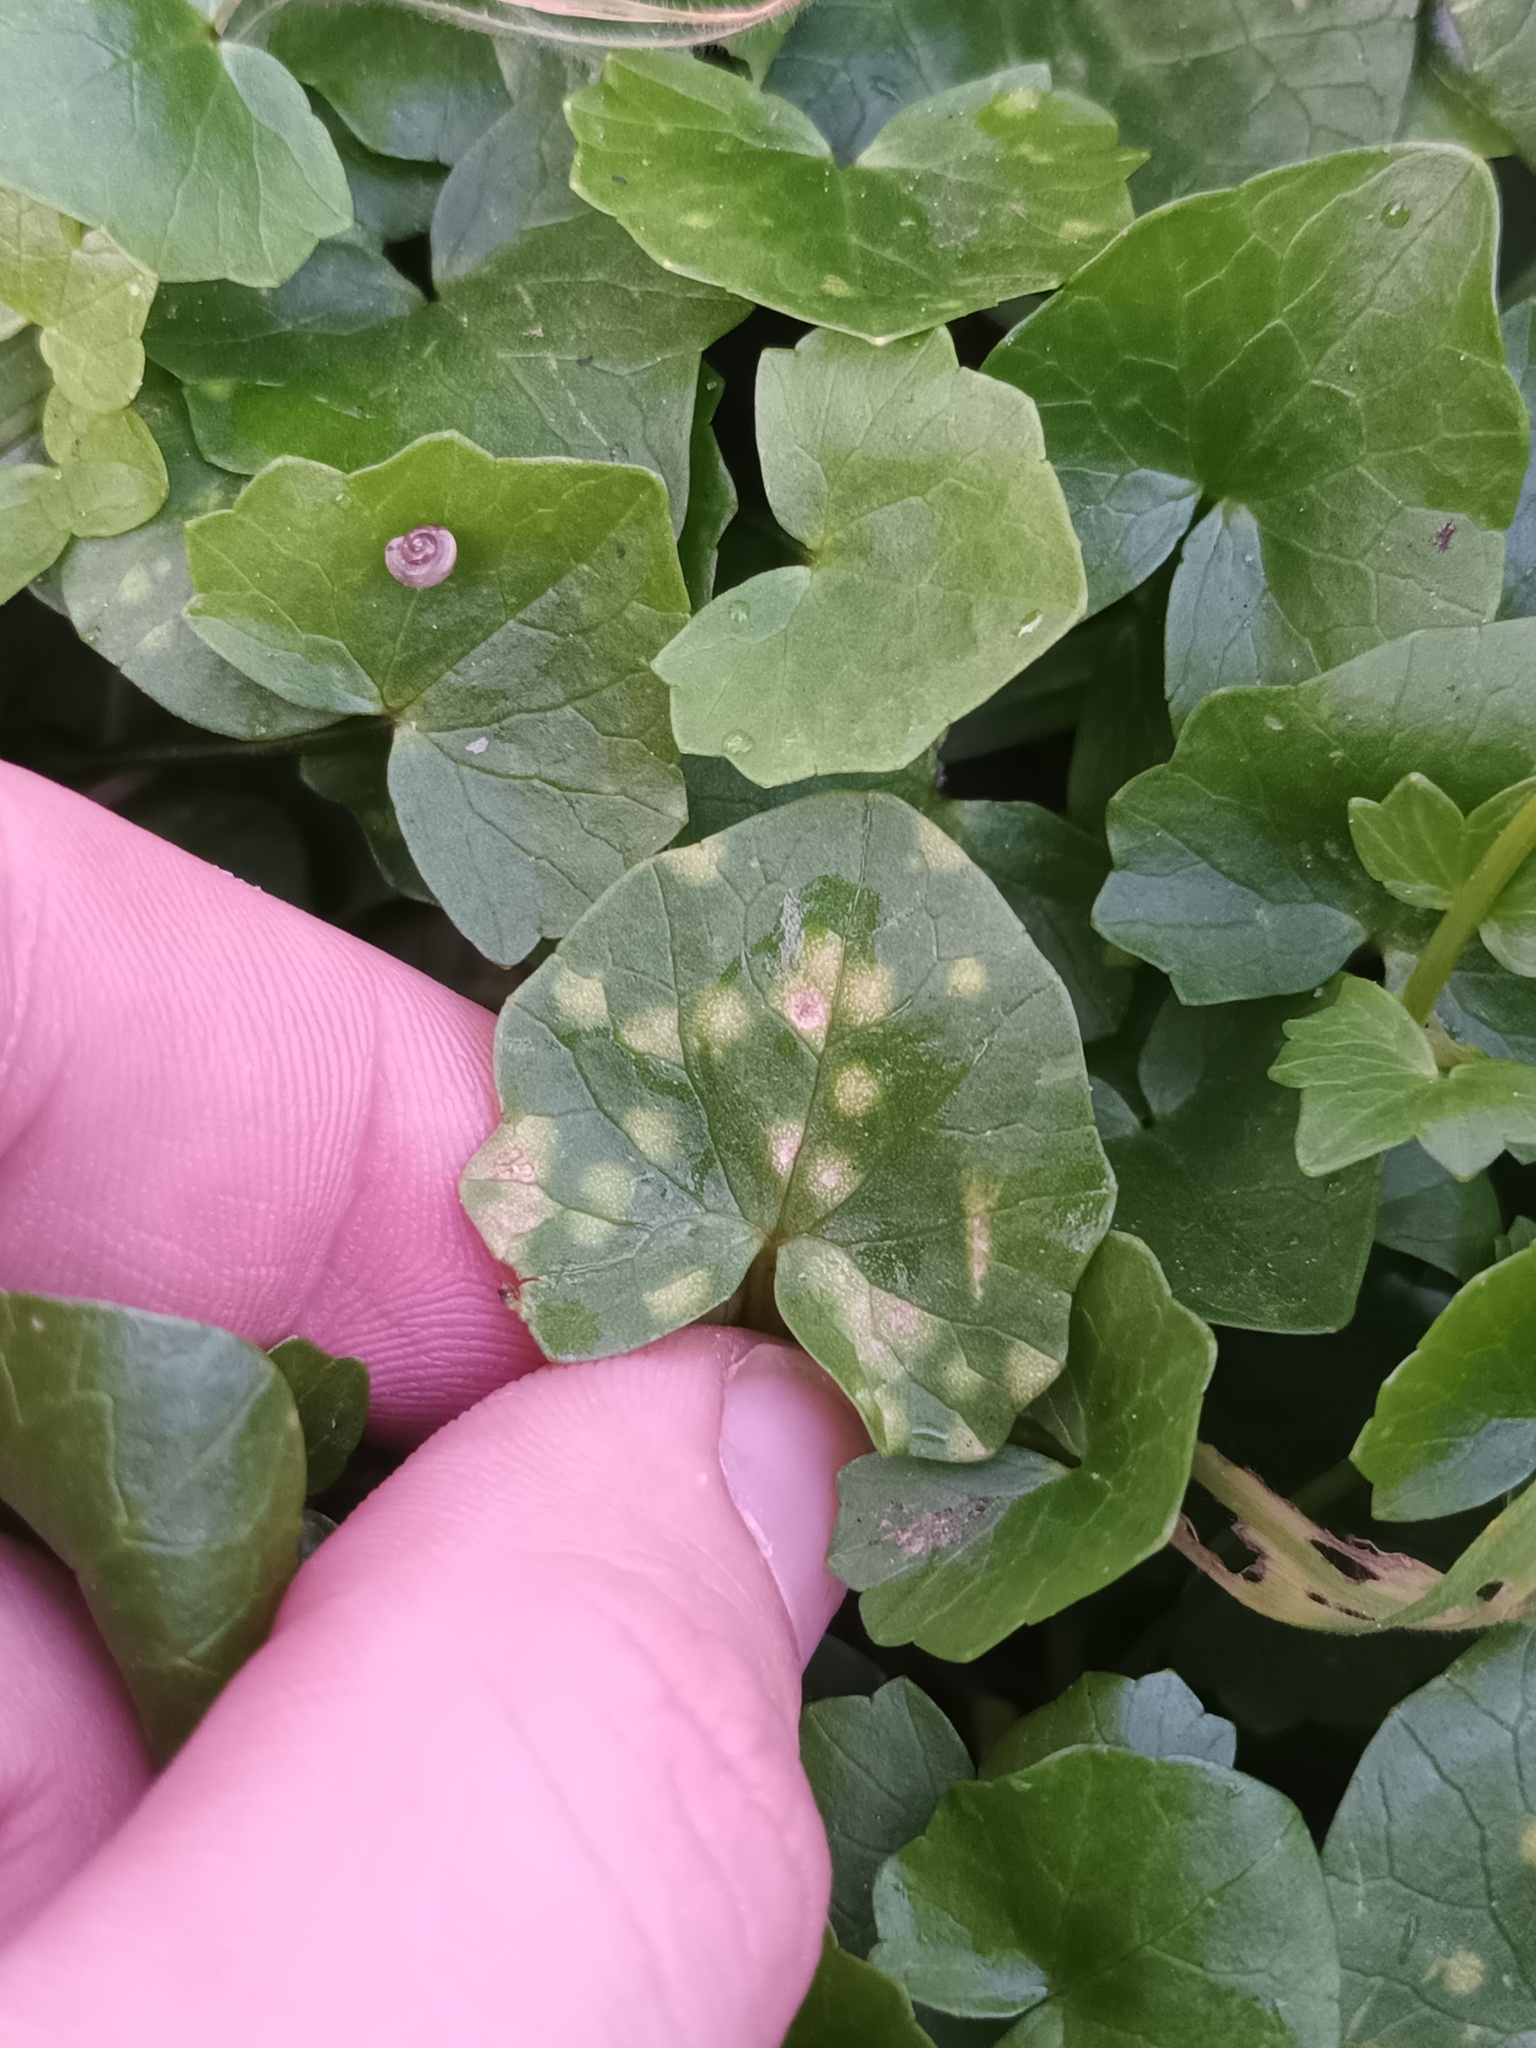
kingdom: Fungi
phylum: Basidiomycota
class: Exobasidiomycetes
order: Entylomatales
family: Entylomataceae
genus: Entyloma
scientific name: Entyloma ficariae
